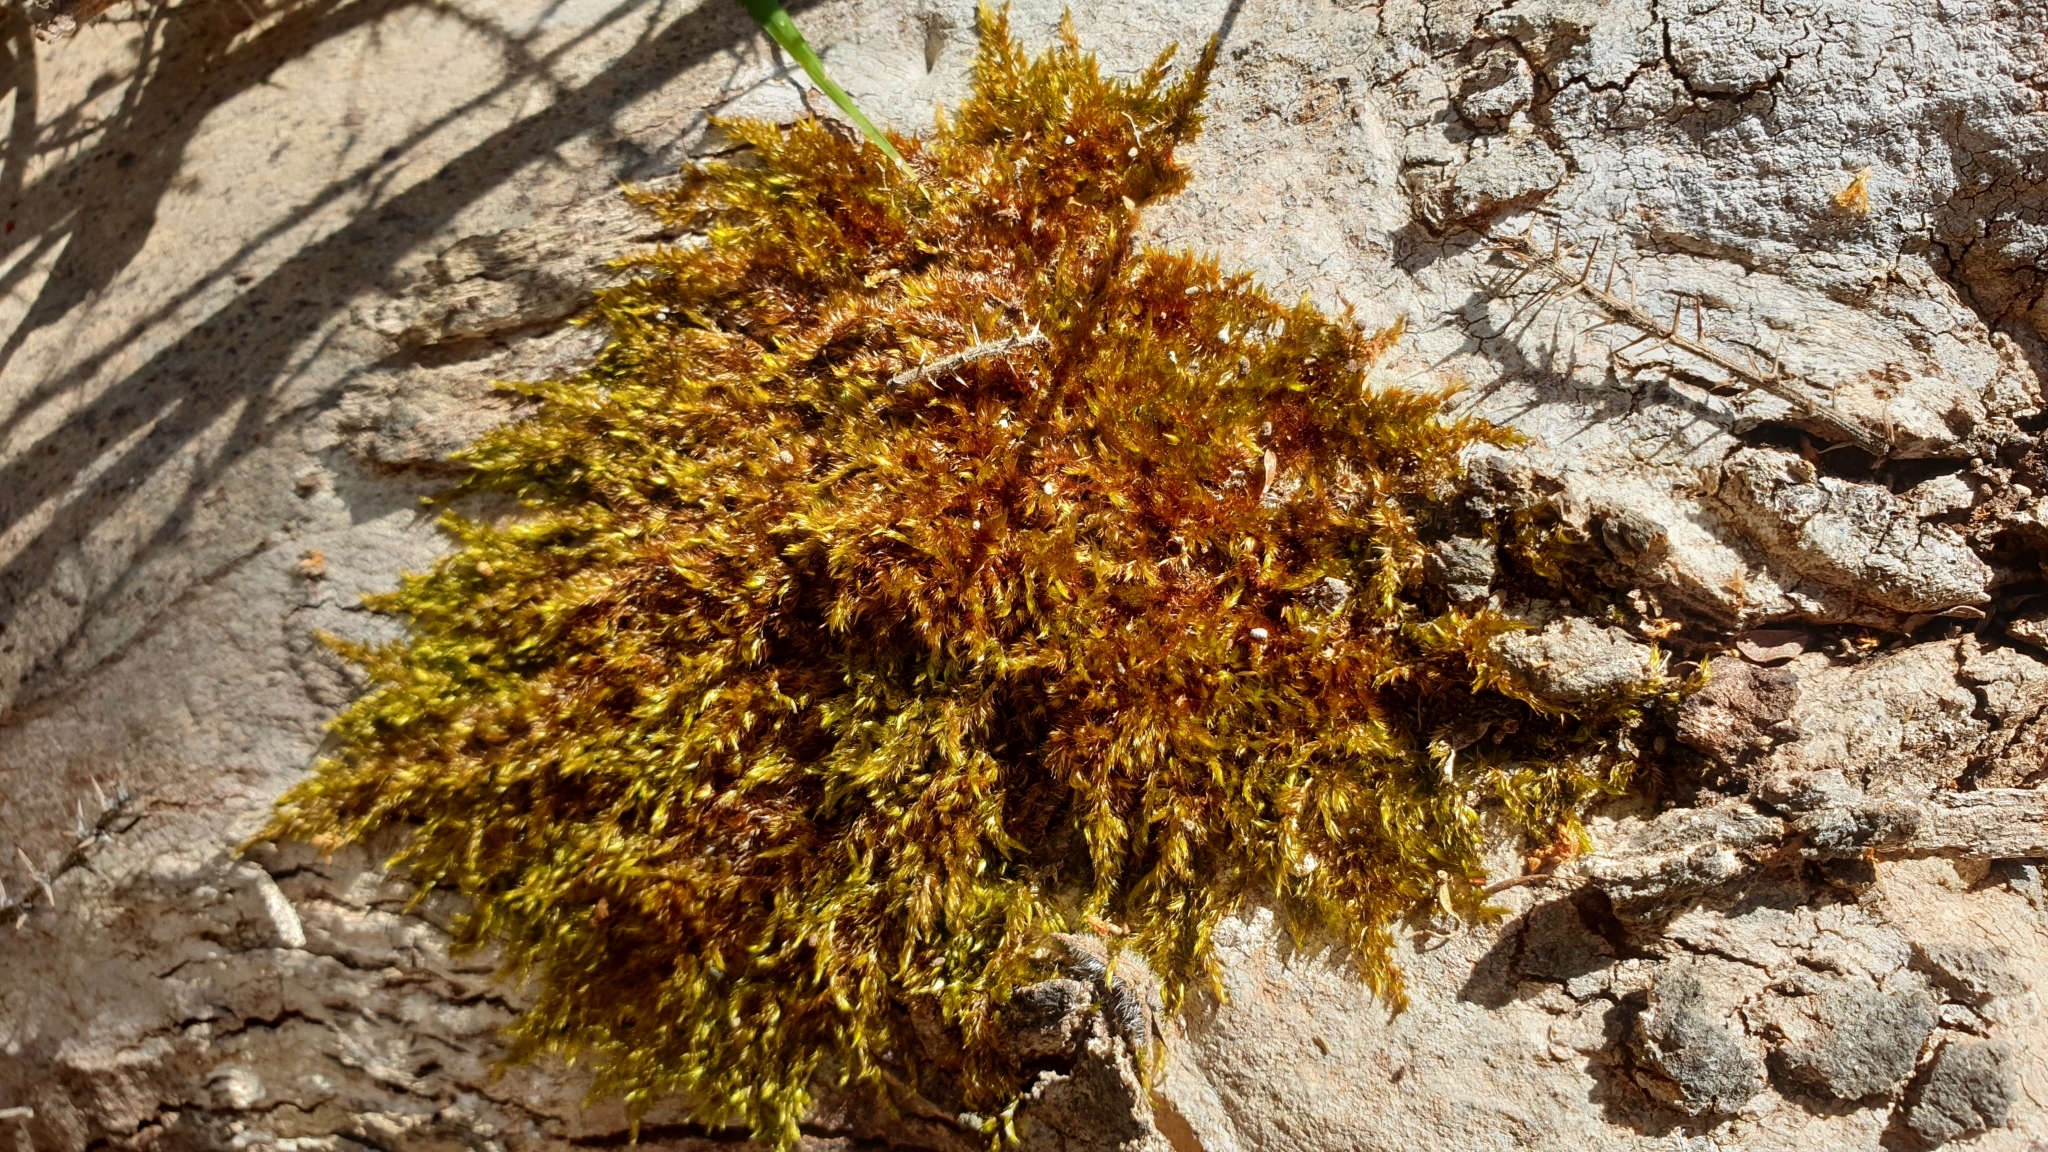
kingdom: Plantae
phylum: Bryophyta
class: Bryopsida
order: Hypnales
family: Sematophyllaceae
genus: Sematophyllum
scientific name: Sematophyllum homomallum
